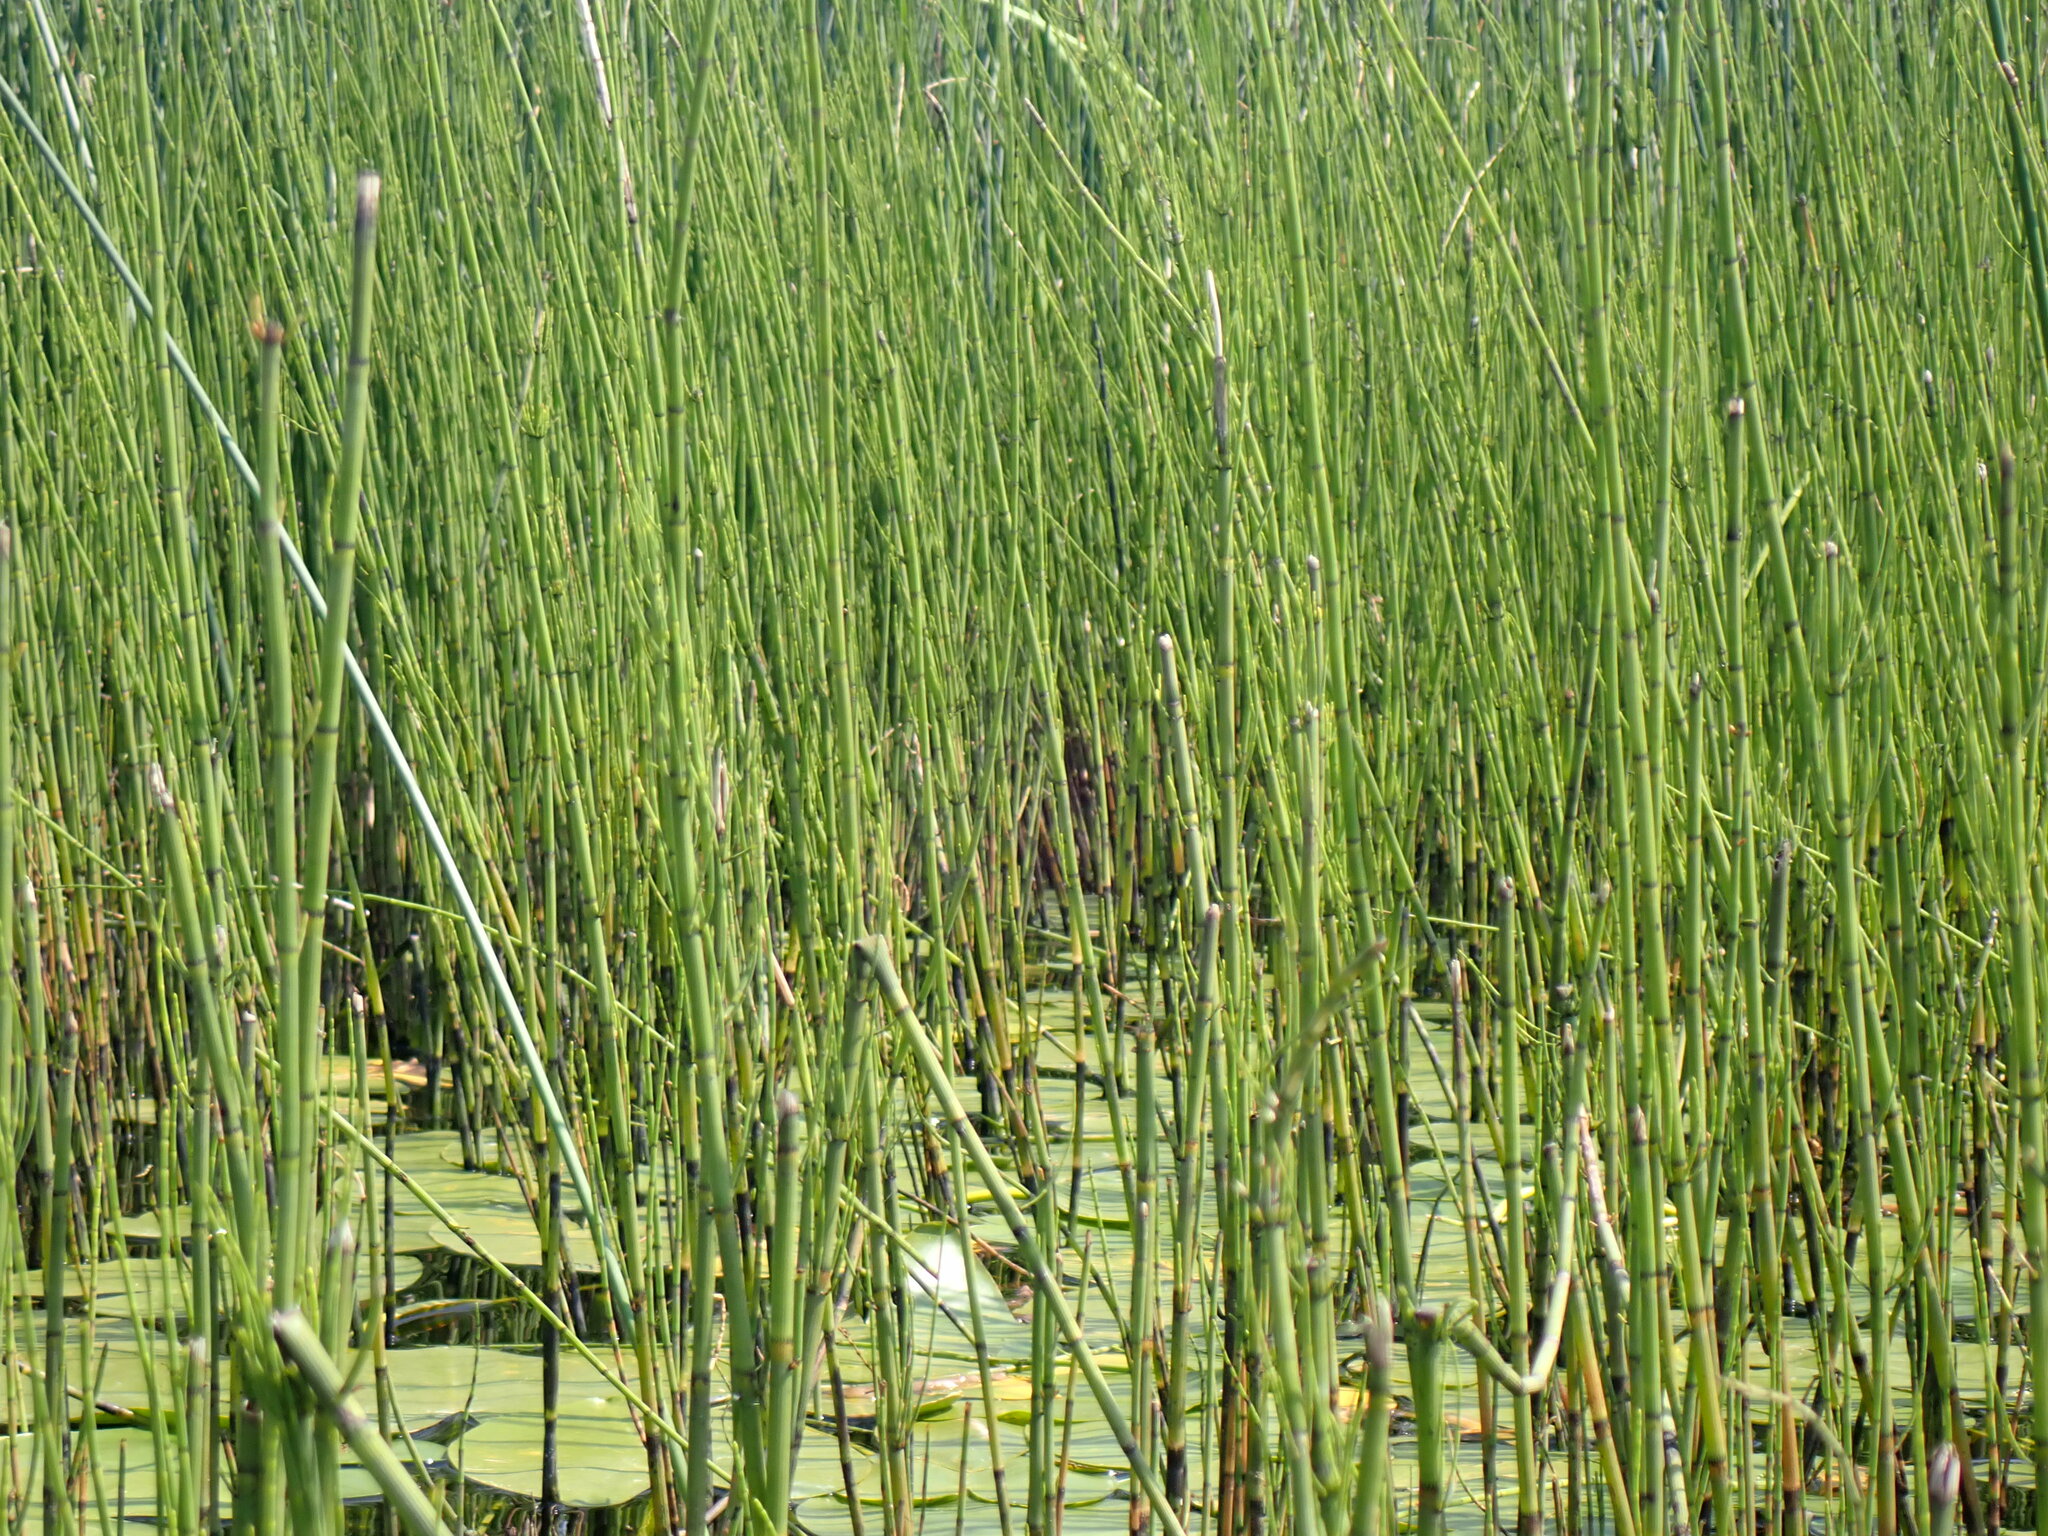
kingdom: Plantae
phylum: Tracheophyta
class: Polypodiopsida
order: Equisetales
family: Equisetaceae
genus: Equisetum
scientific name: Equisetum laevigatum
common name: Smooth scouring-rush
